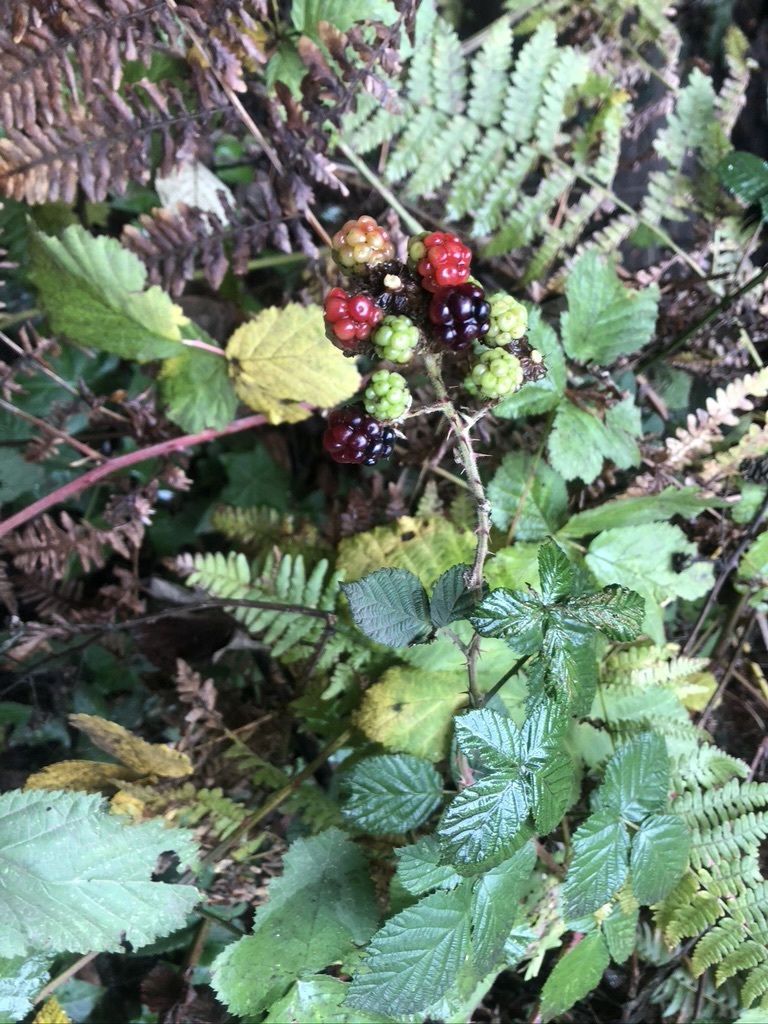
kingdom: Plantae
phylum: Tracheophyta
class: Magnoliopsida
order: Rosales
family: Rosaceae
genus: Rubus
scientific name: Rubus armeniacus
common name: Himalayan blackberry
